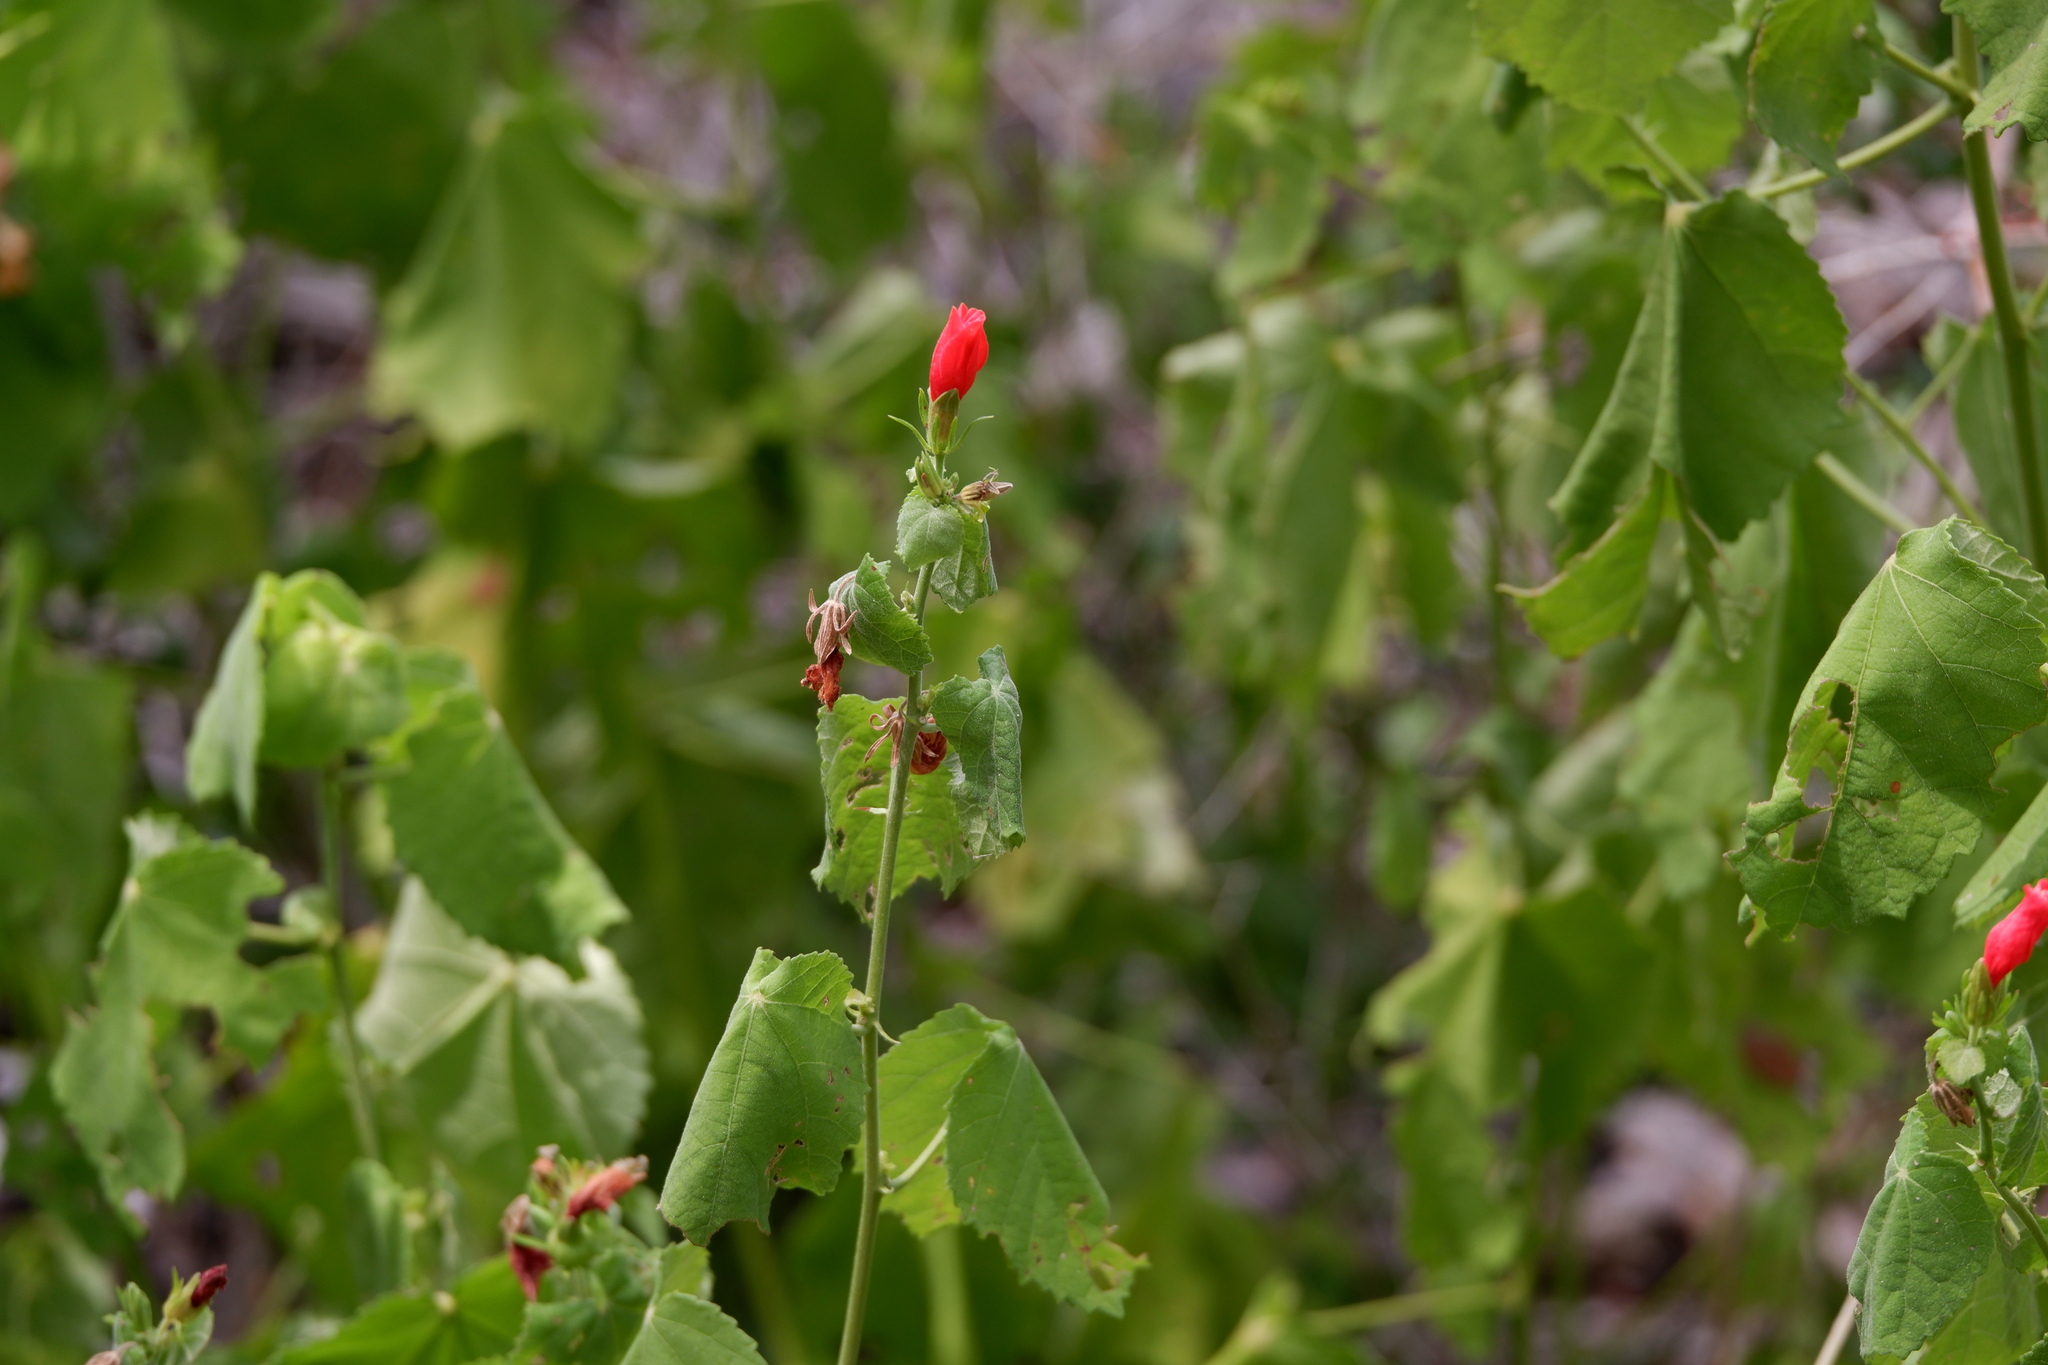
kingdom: Plantae
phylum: Tracheophyta
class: Magnoliopsida
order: Malvales
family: Malvaceae
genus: Malvaviscus
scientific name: Malvaviscus arboreus
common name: Wax mallow
